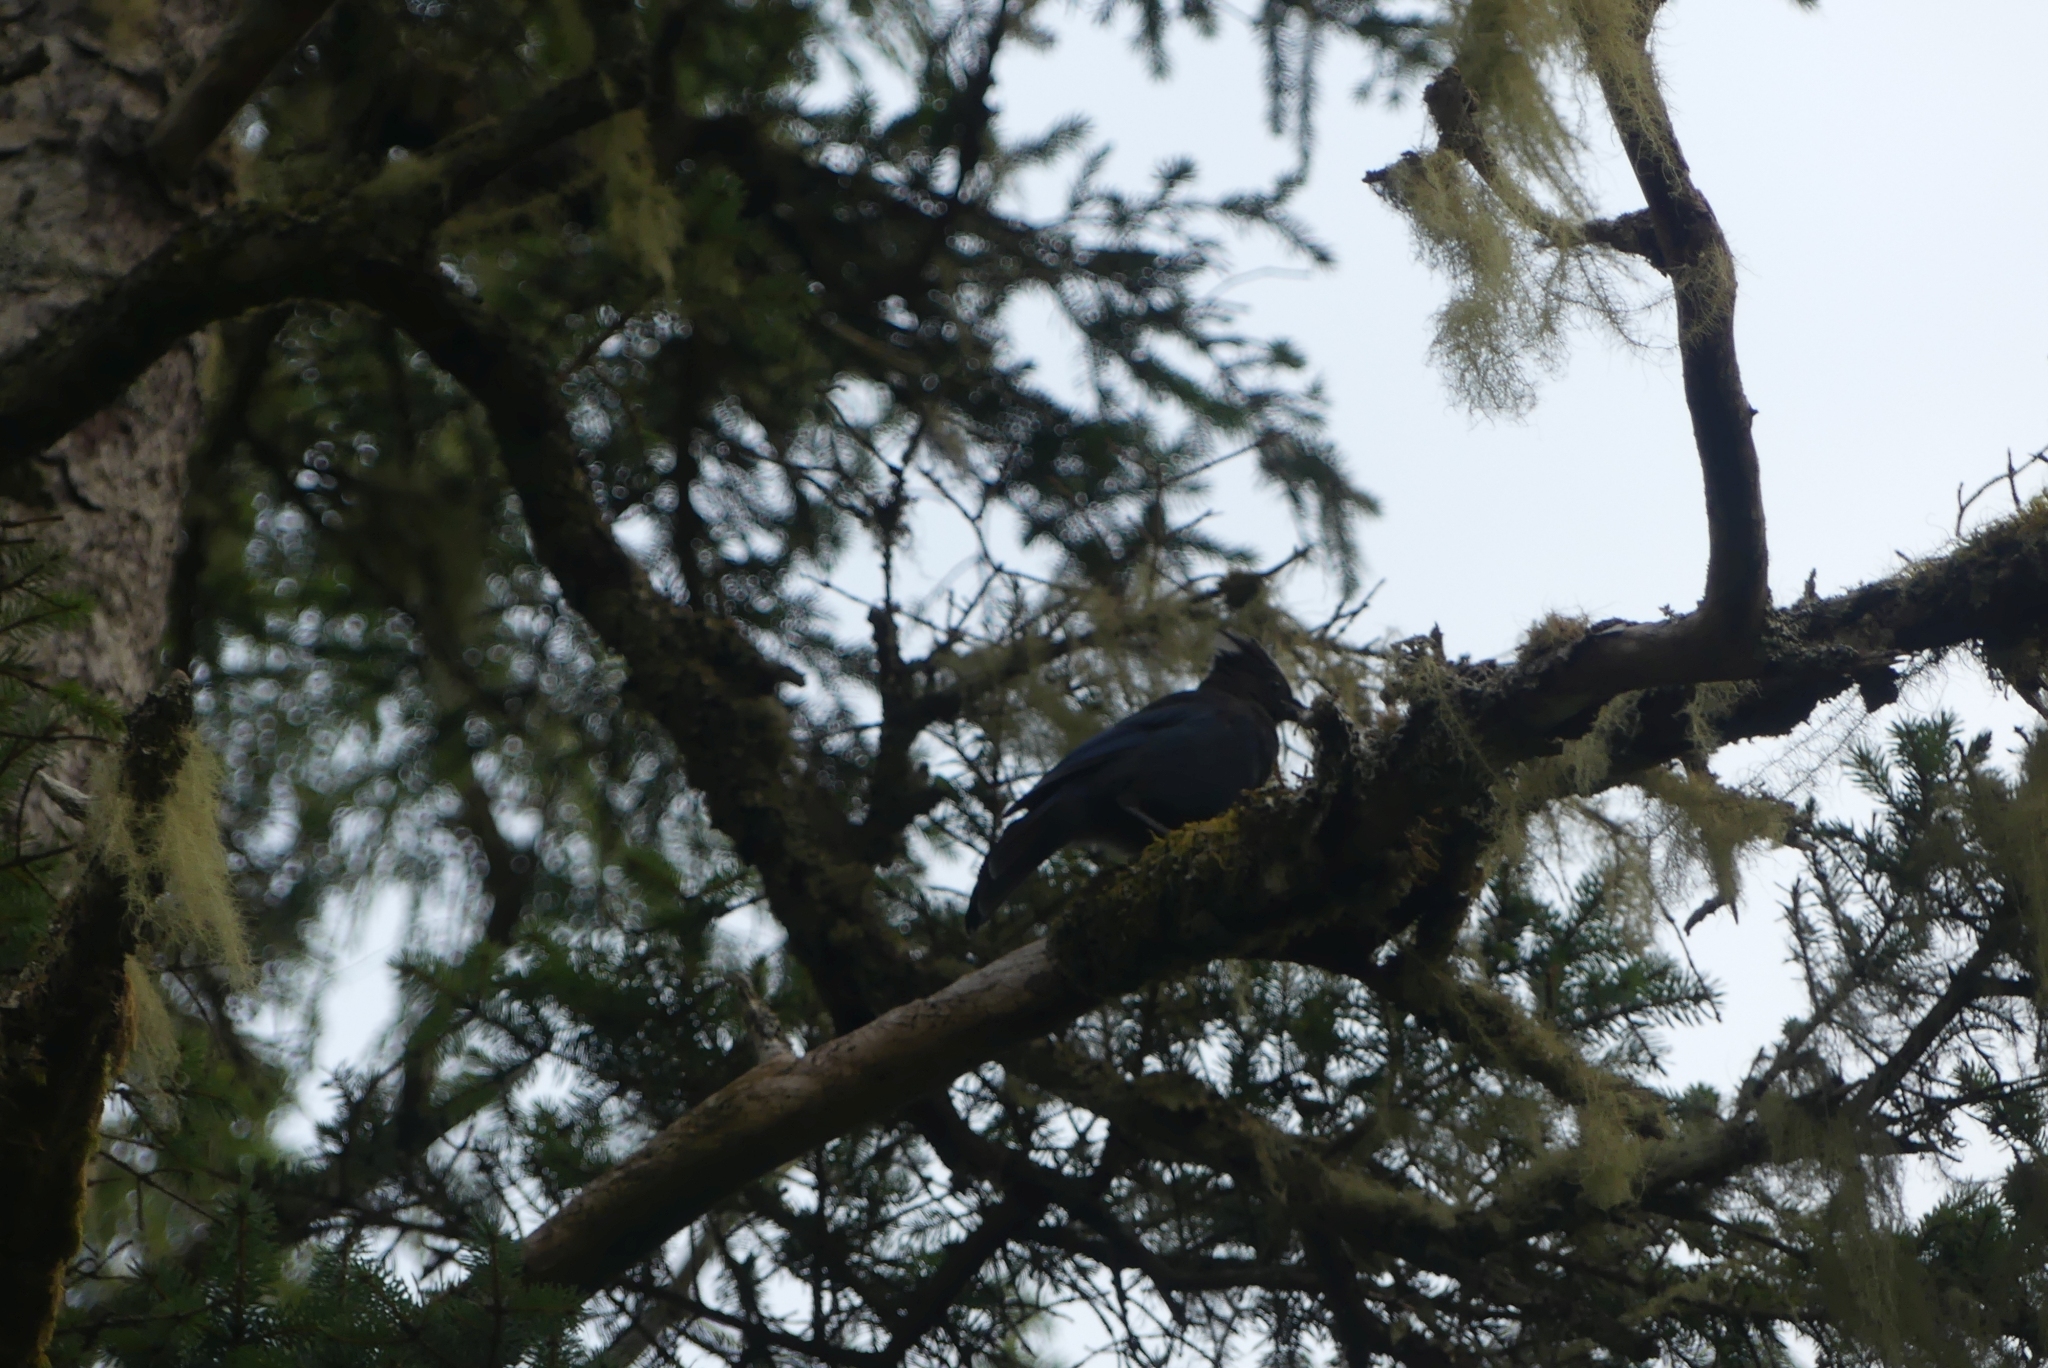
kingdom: Animalia
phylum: Chordata
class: Aves
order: Passeriformes
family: Corvidae
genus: Cyanocitta
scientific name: Cyanocitta stelleri
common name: Steller's jay
